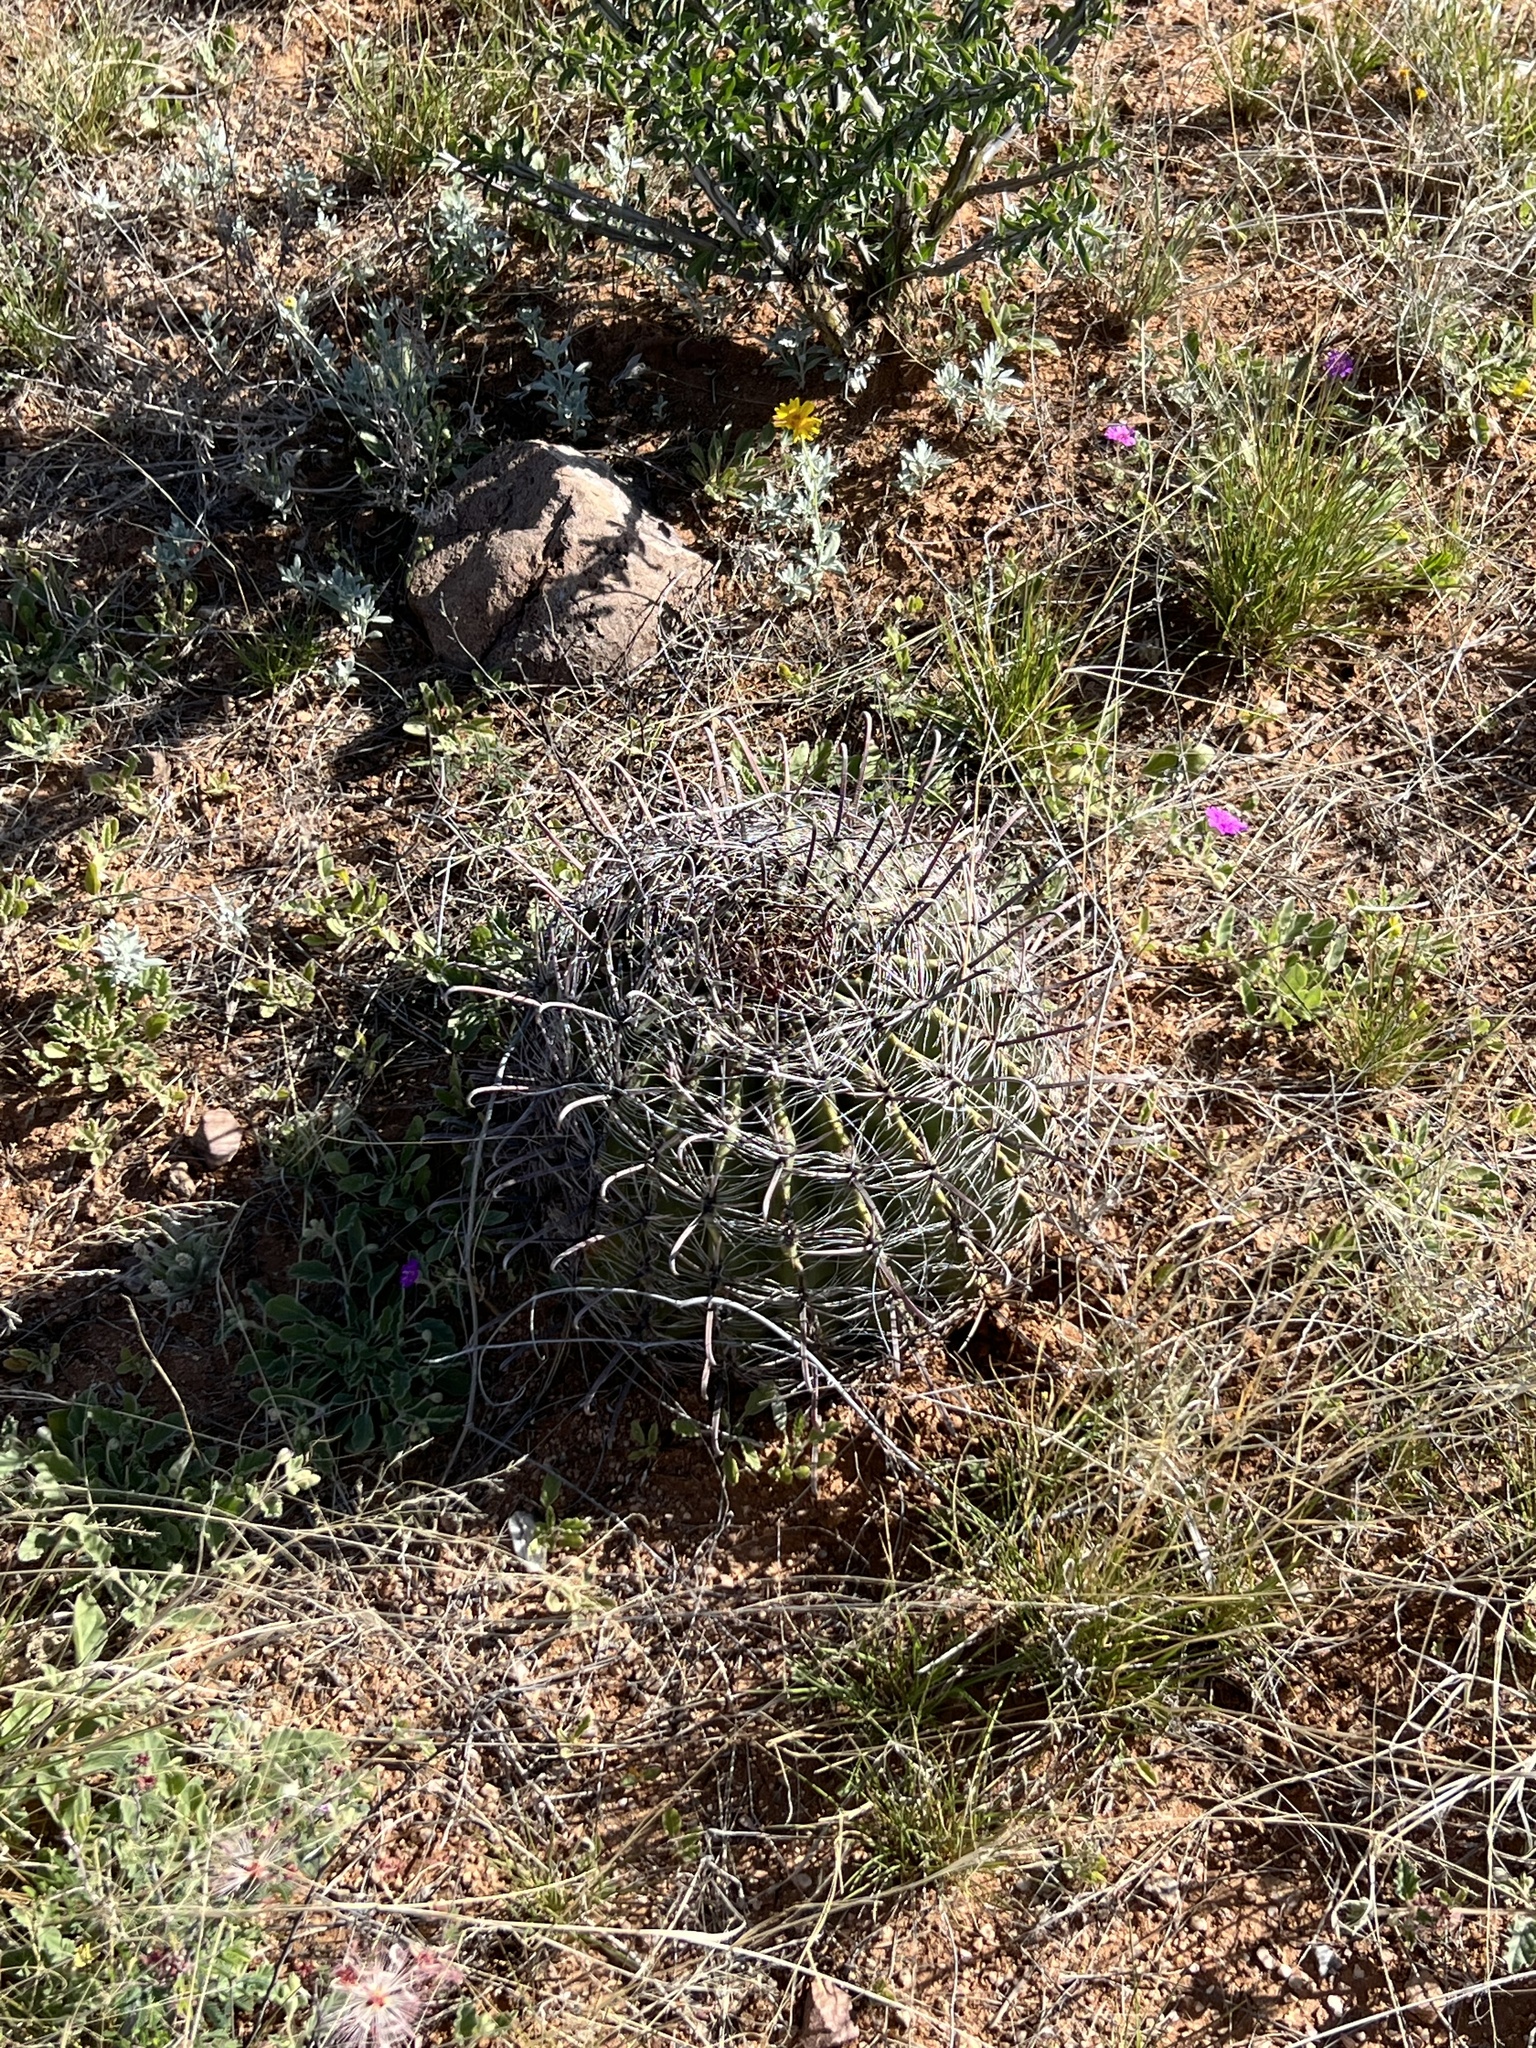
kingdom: Plantae
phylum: Tracheophyta
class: Magnoliopsida
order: Caryophyllales
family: Cactaceae
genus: Ferocactus
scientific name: Ferocactus wislizeni
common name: Candy barrel cactus
